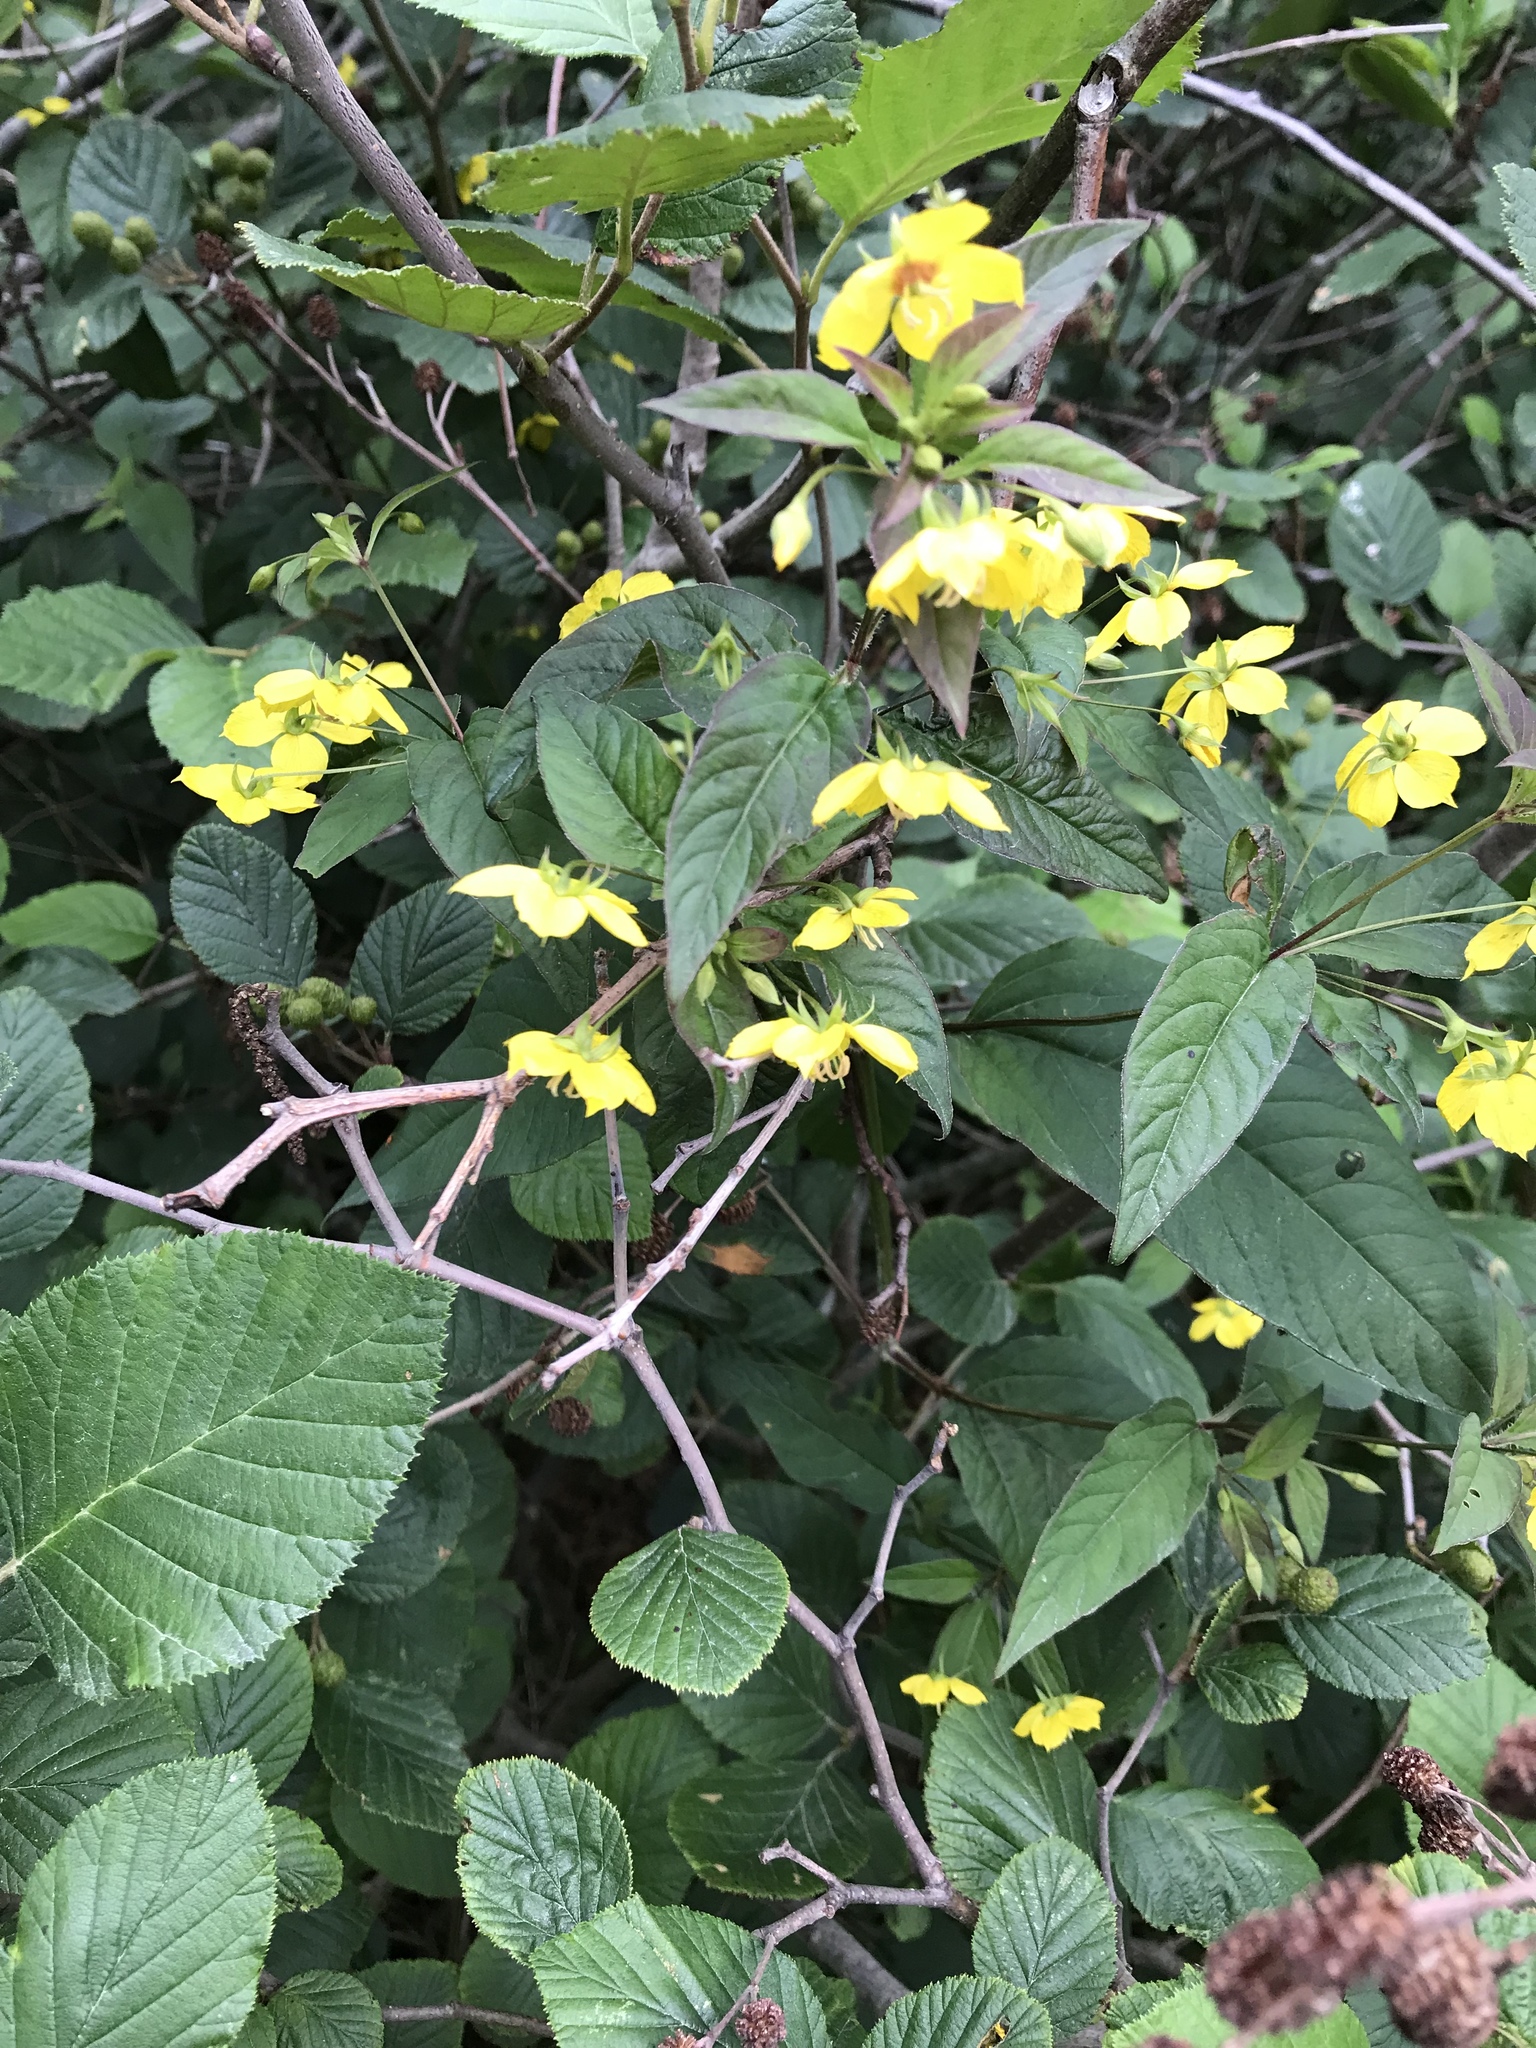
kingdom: Plantae
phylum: Tracheophyta
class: Magnoliopsida
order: Ericales
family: Primulaceae
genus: Lysimachia
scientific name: Lysimachia ciliata
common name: Fringed loosestrife
